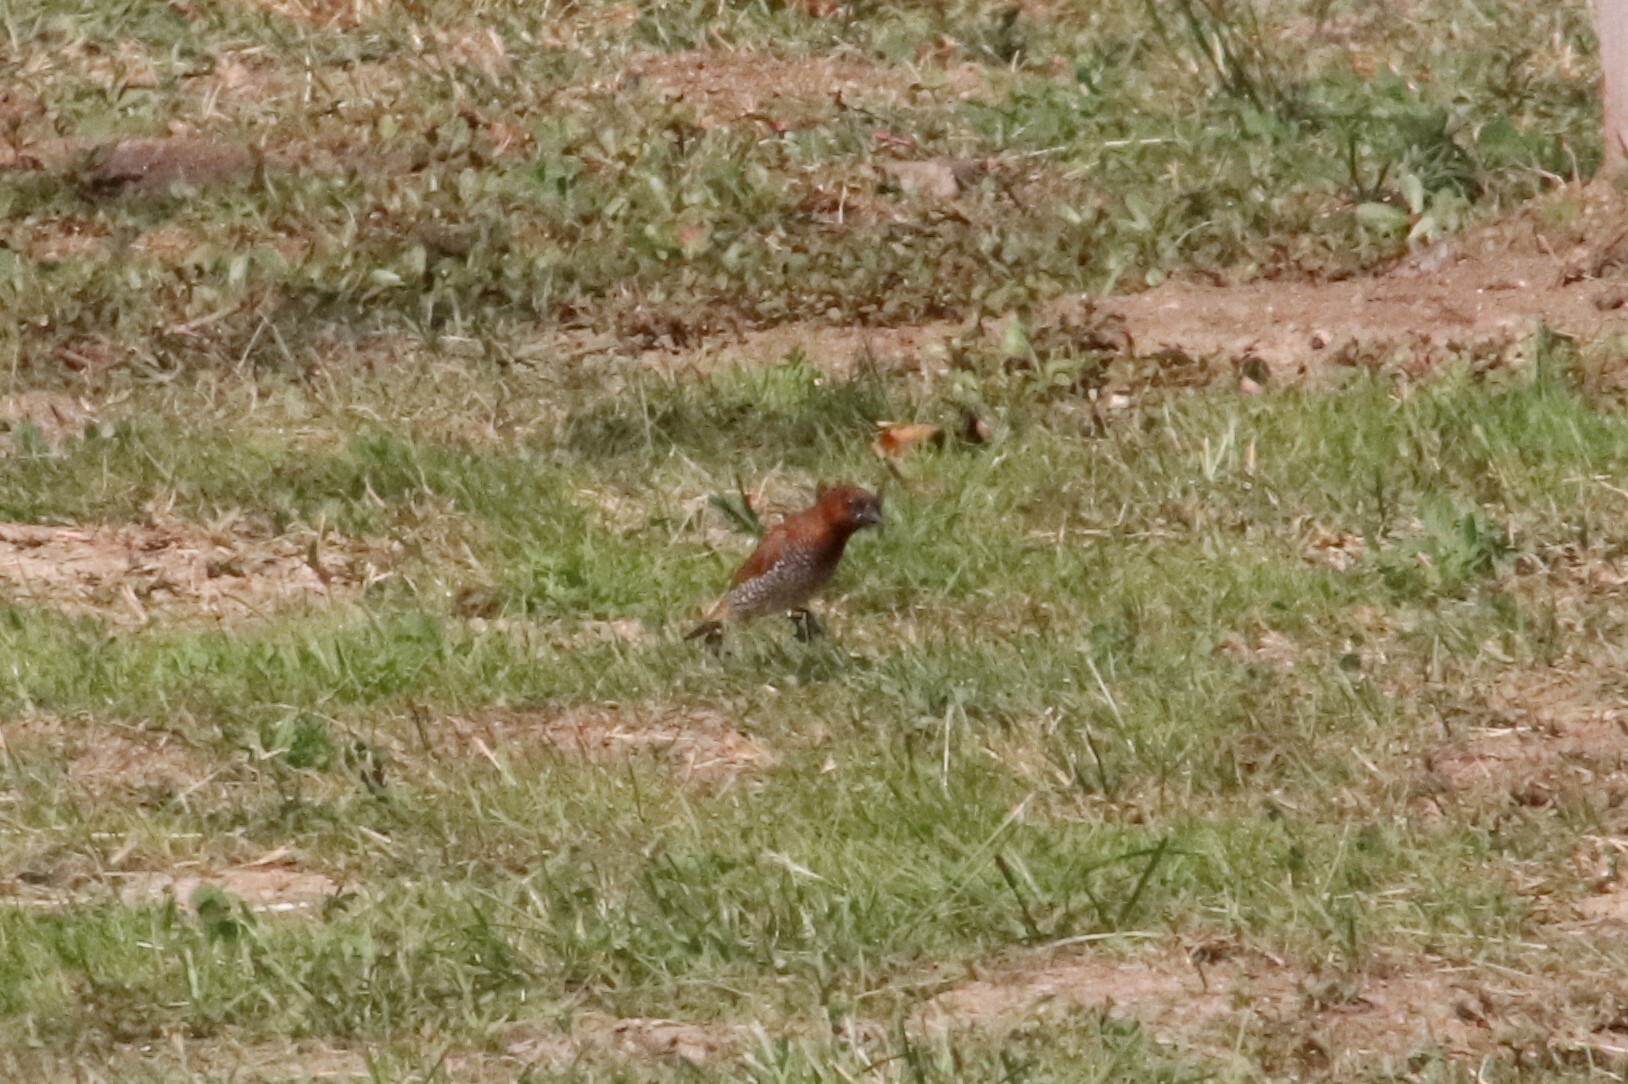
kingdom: Animalia
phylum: Chordata
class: Aves
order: Passeriformes
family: Estrildidae
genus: Lonchura
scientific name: Lonchura punctulata
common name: Scaly-breasted munia
